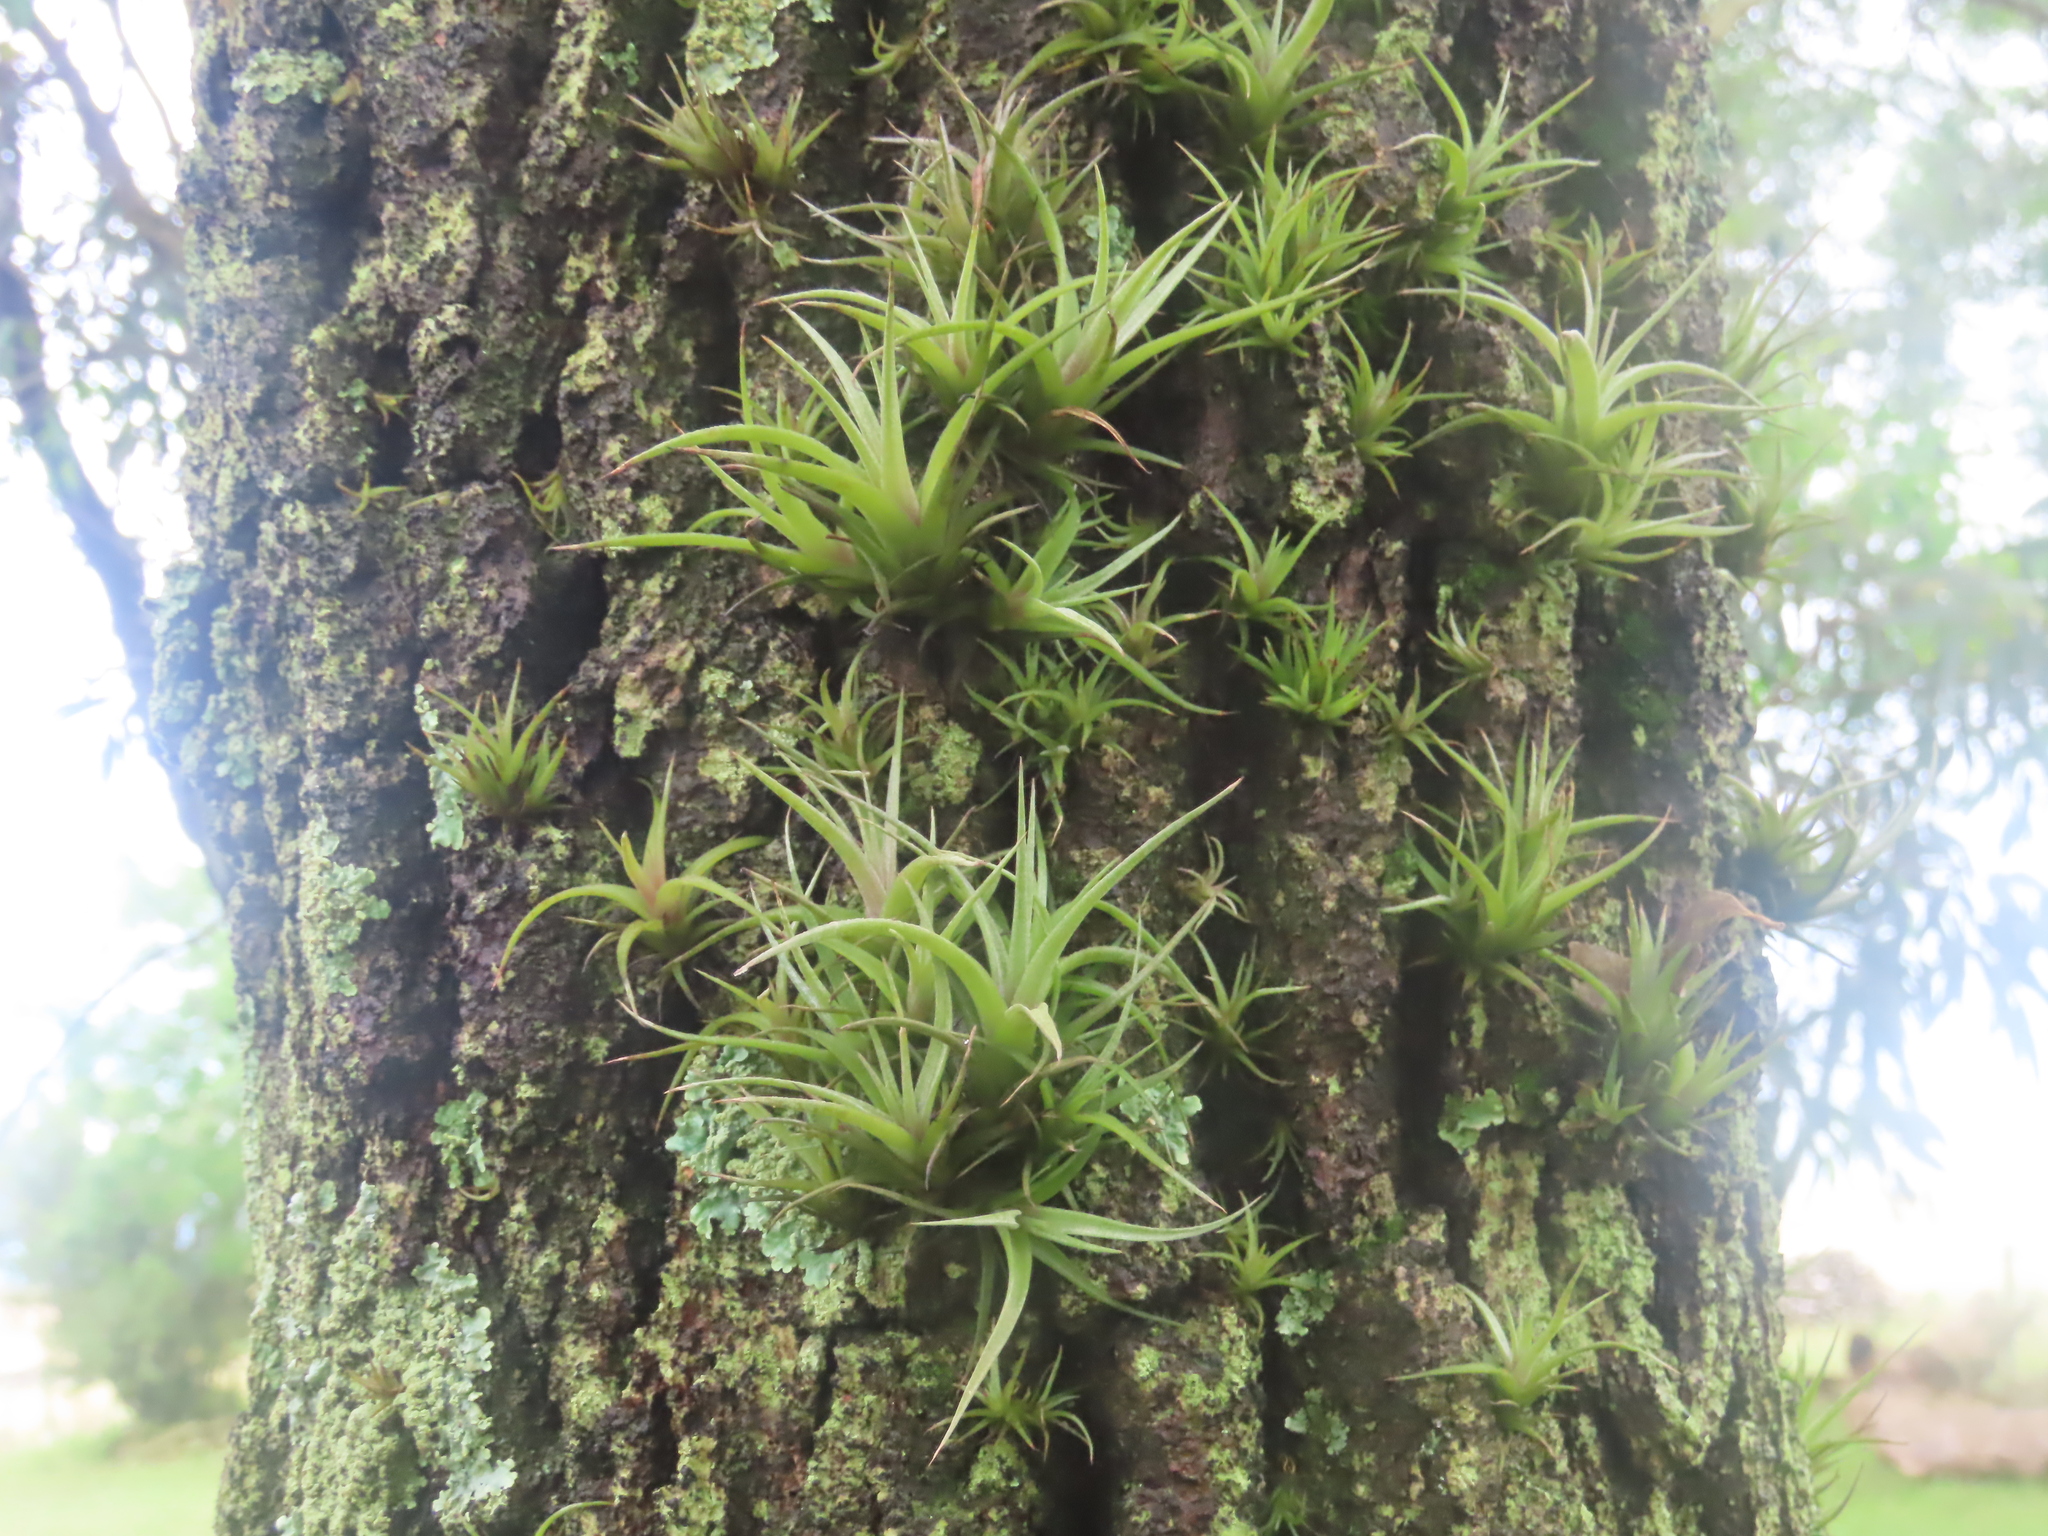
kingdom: Plantae
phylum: Tracheophyta
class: Liliopsida
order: Poales
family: Bromeliaceae
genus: Tillandsia
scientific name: Tillandsia aeranthos
